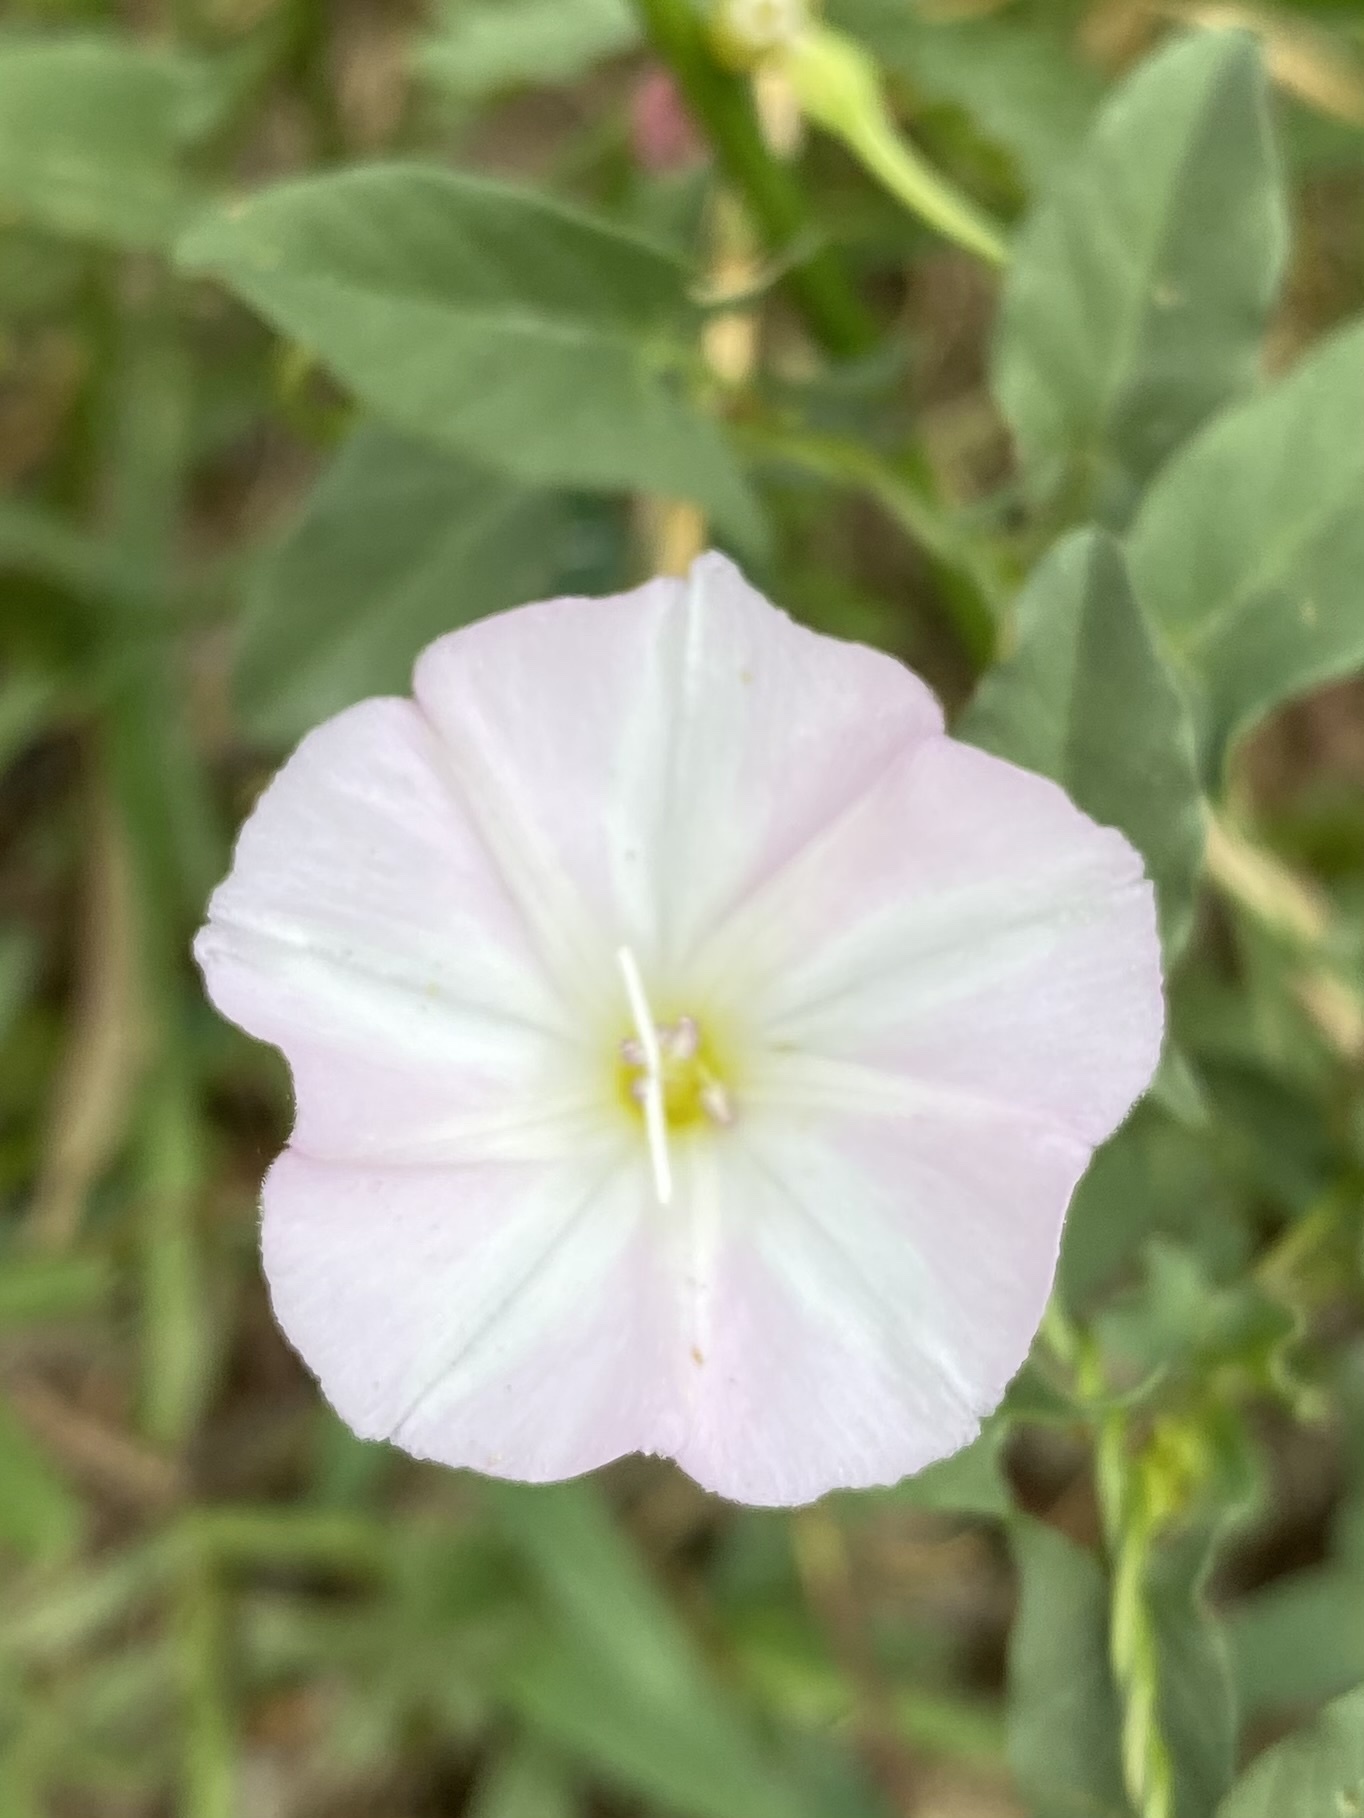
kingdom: Plantae
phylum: Tracheophyta
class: Magnoliopsida
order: Solanales
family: Convolvulaceae
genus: Convolvulus
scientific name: Convolvulus arvensis
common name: Field bindweed
